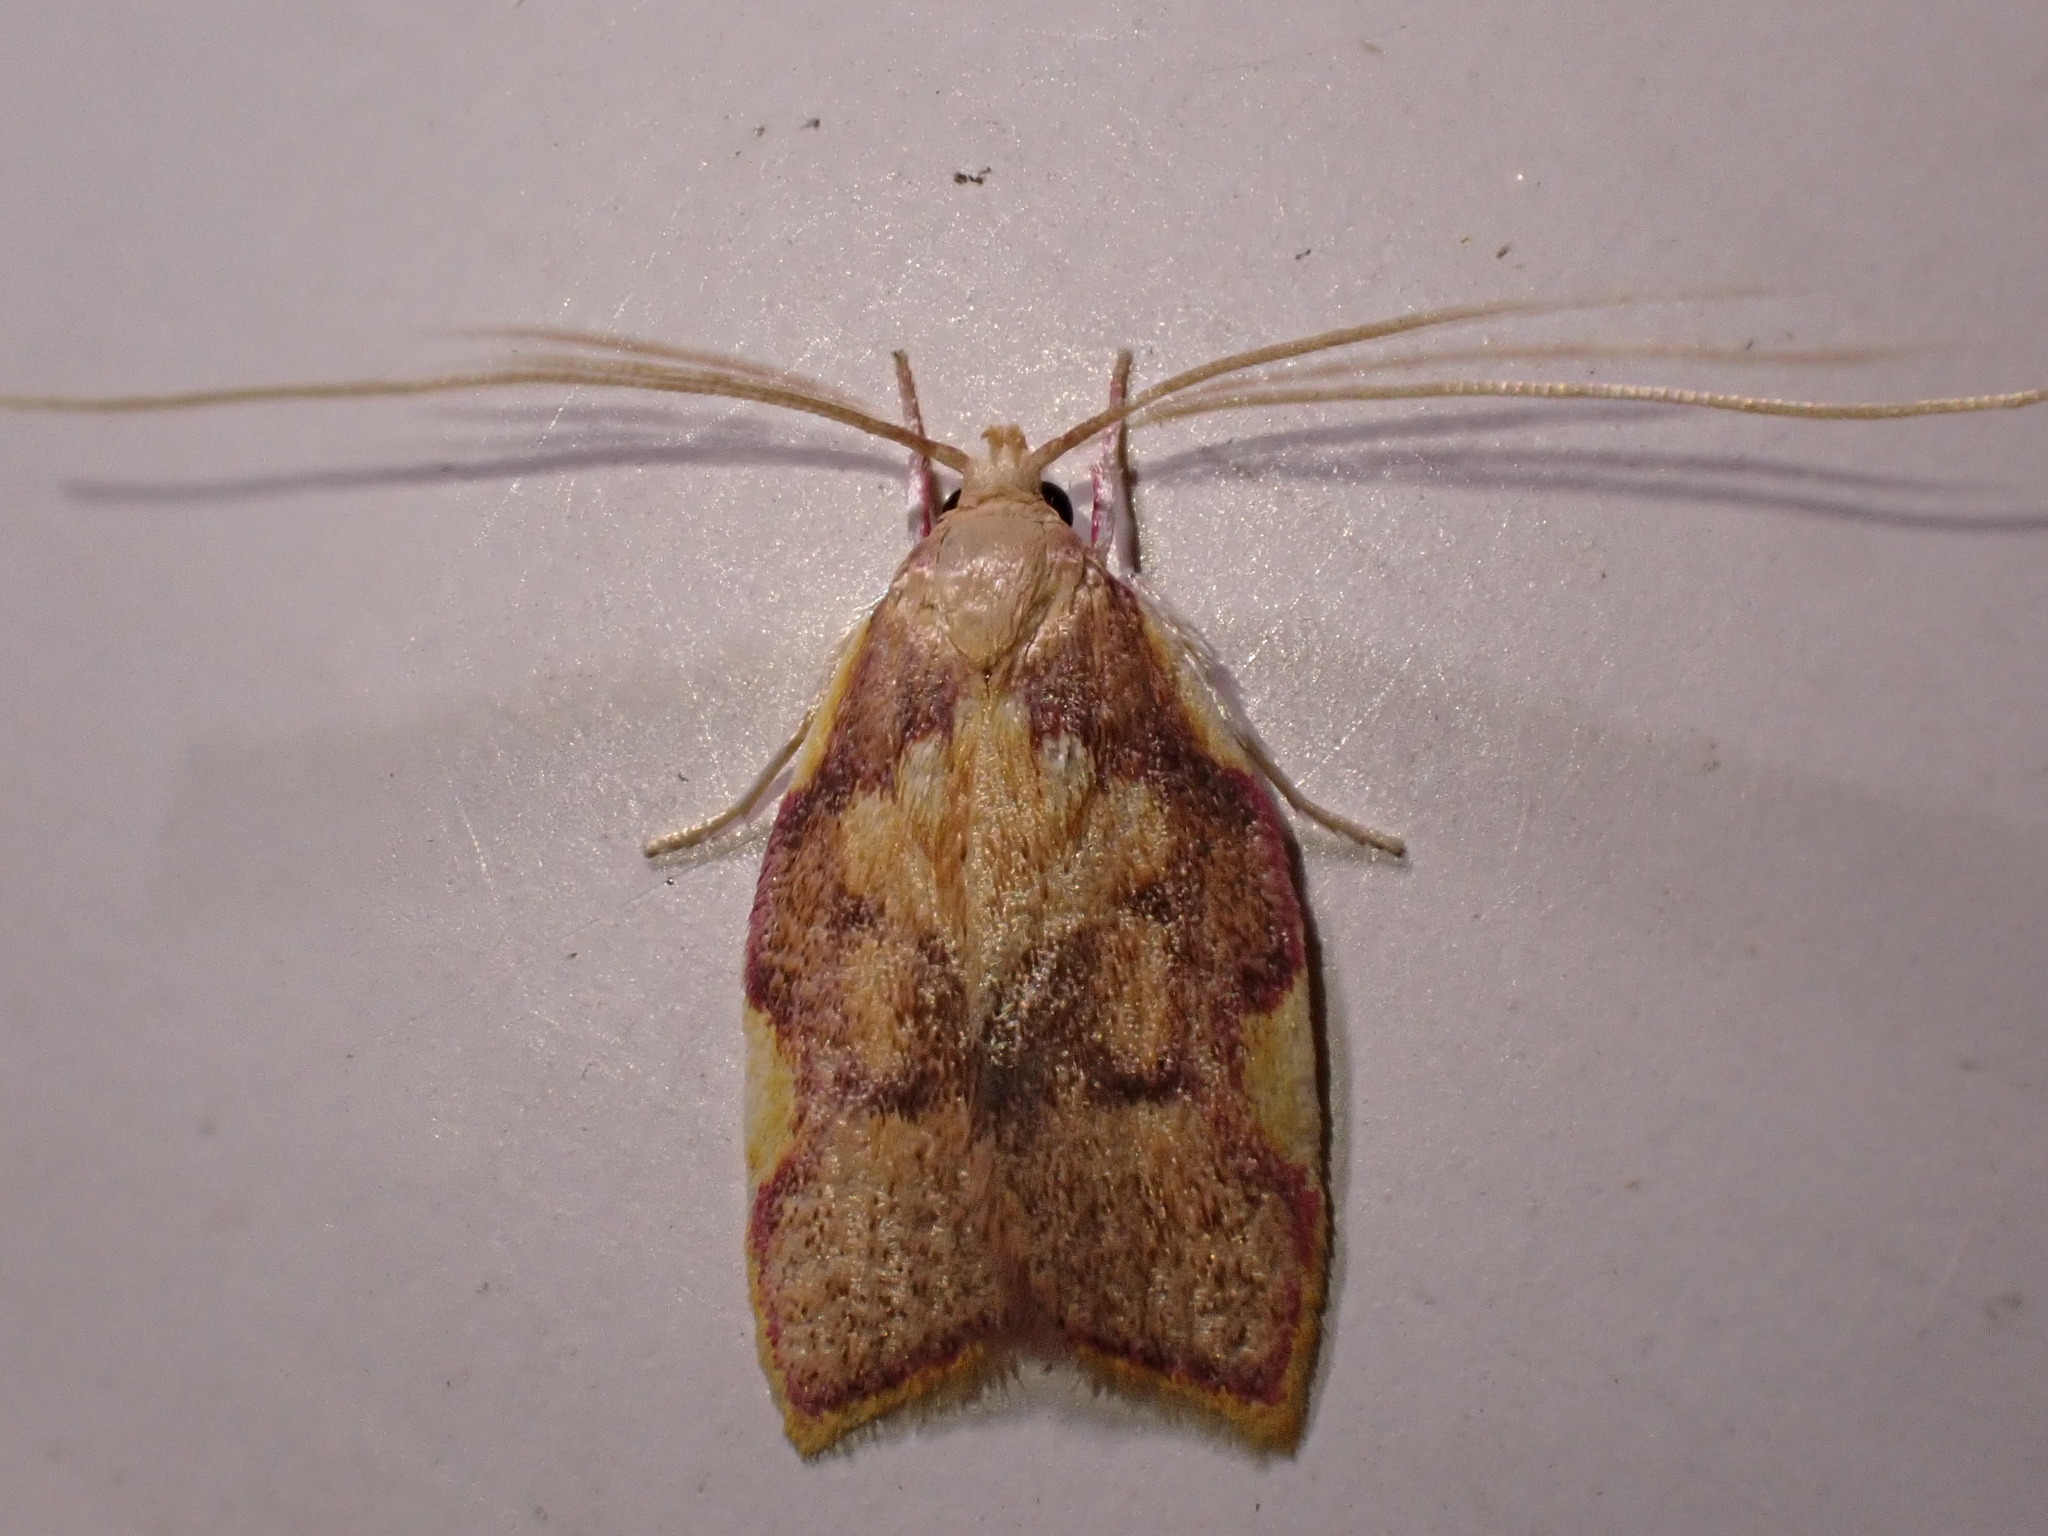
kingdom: Animalia
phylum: Arthropoda
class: Insecta
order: Lepidoptera
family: Peleopodidae
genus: Carcina
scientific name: Carcina quercana
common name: Moth
